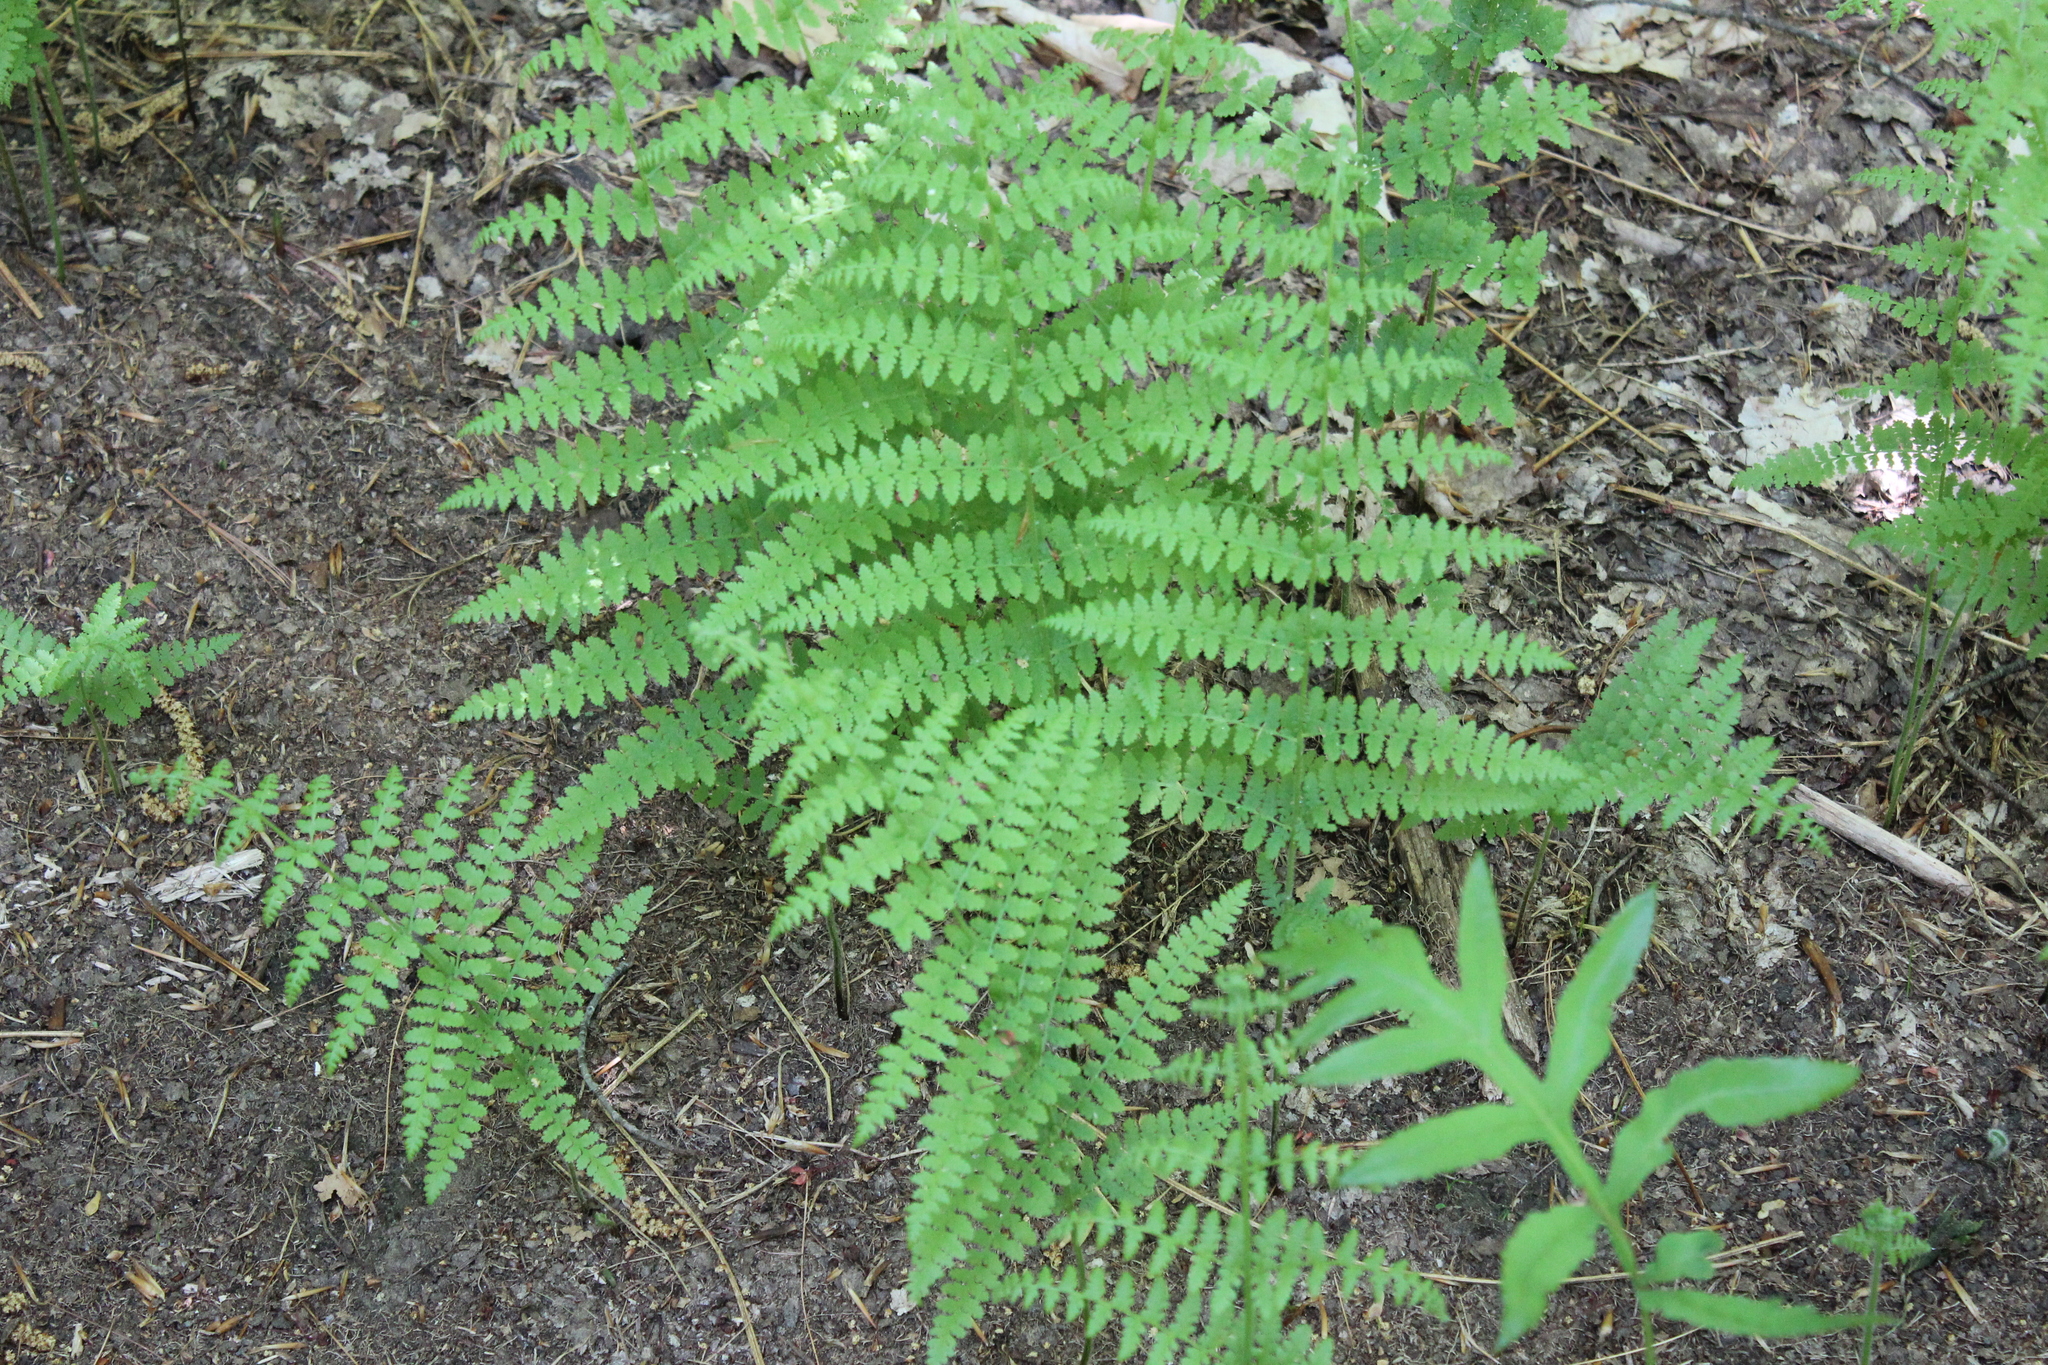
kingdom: Plantae
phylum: Tracheophyta
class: Polypodiopsida
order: Polypodiales
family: Dennstaedtiaceae
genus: Sitobolium
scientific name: Sitobolium punctilobum
